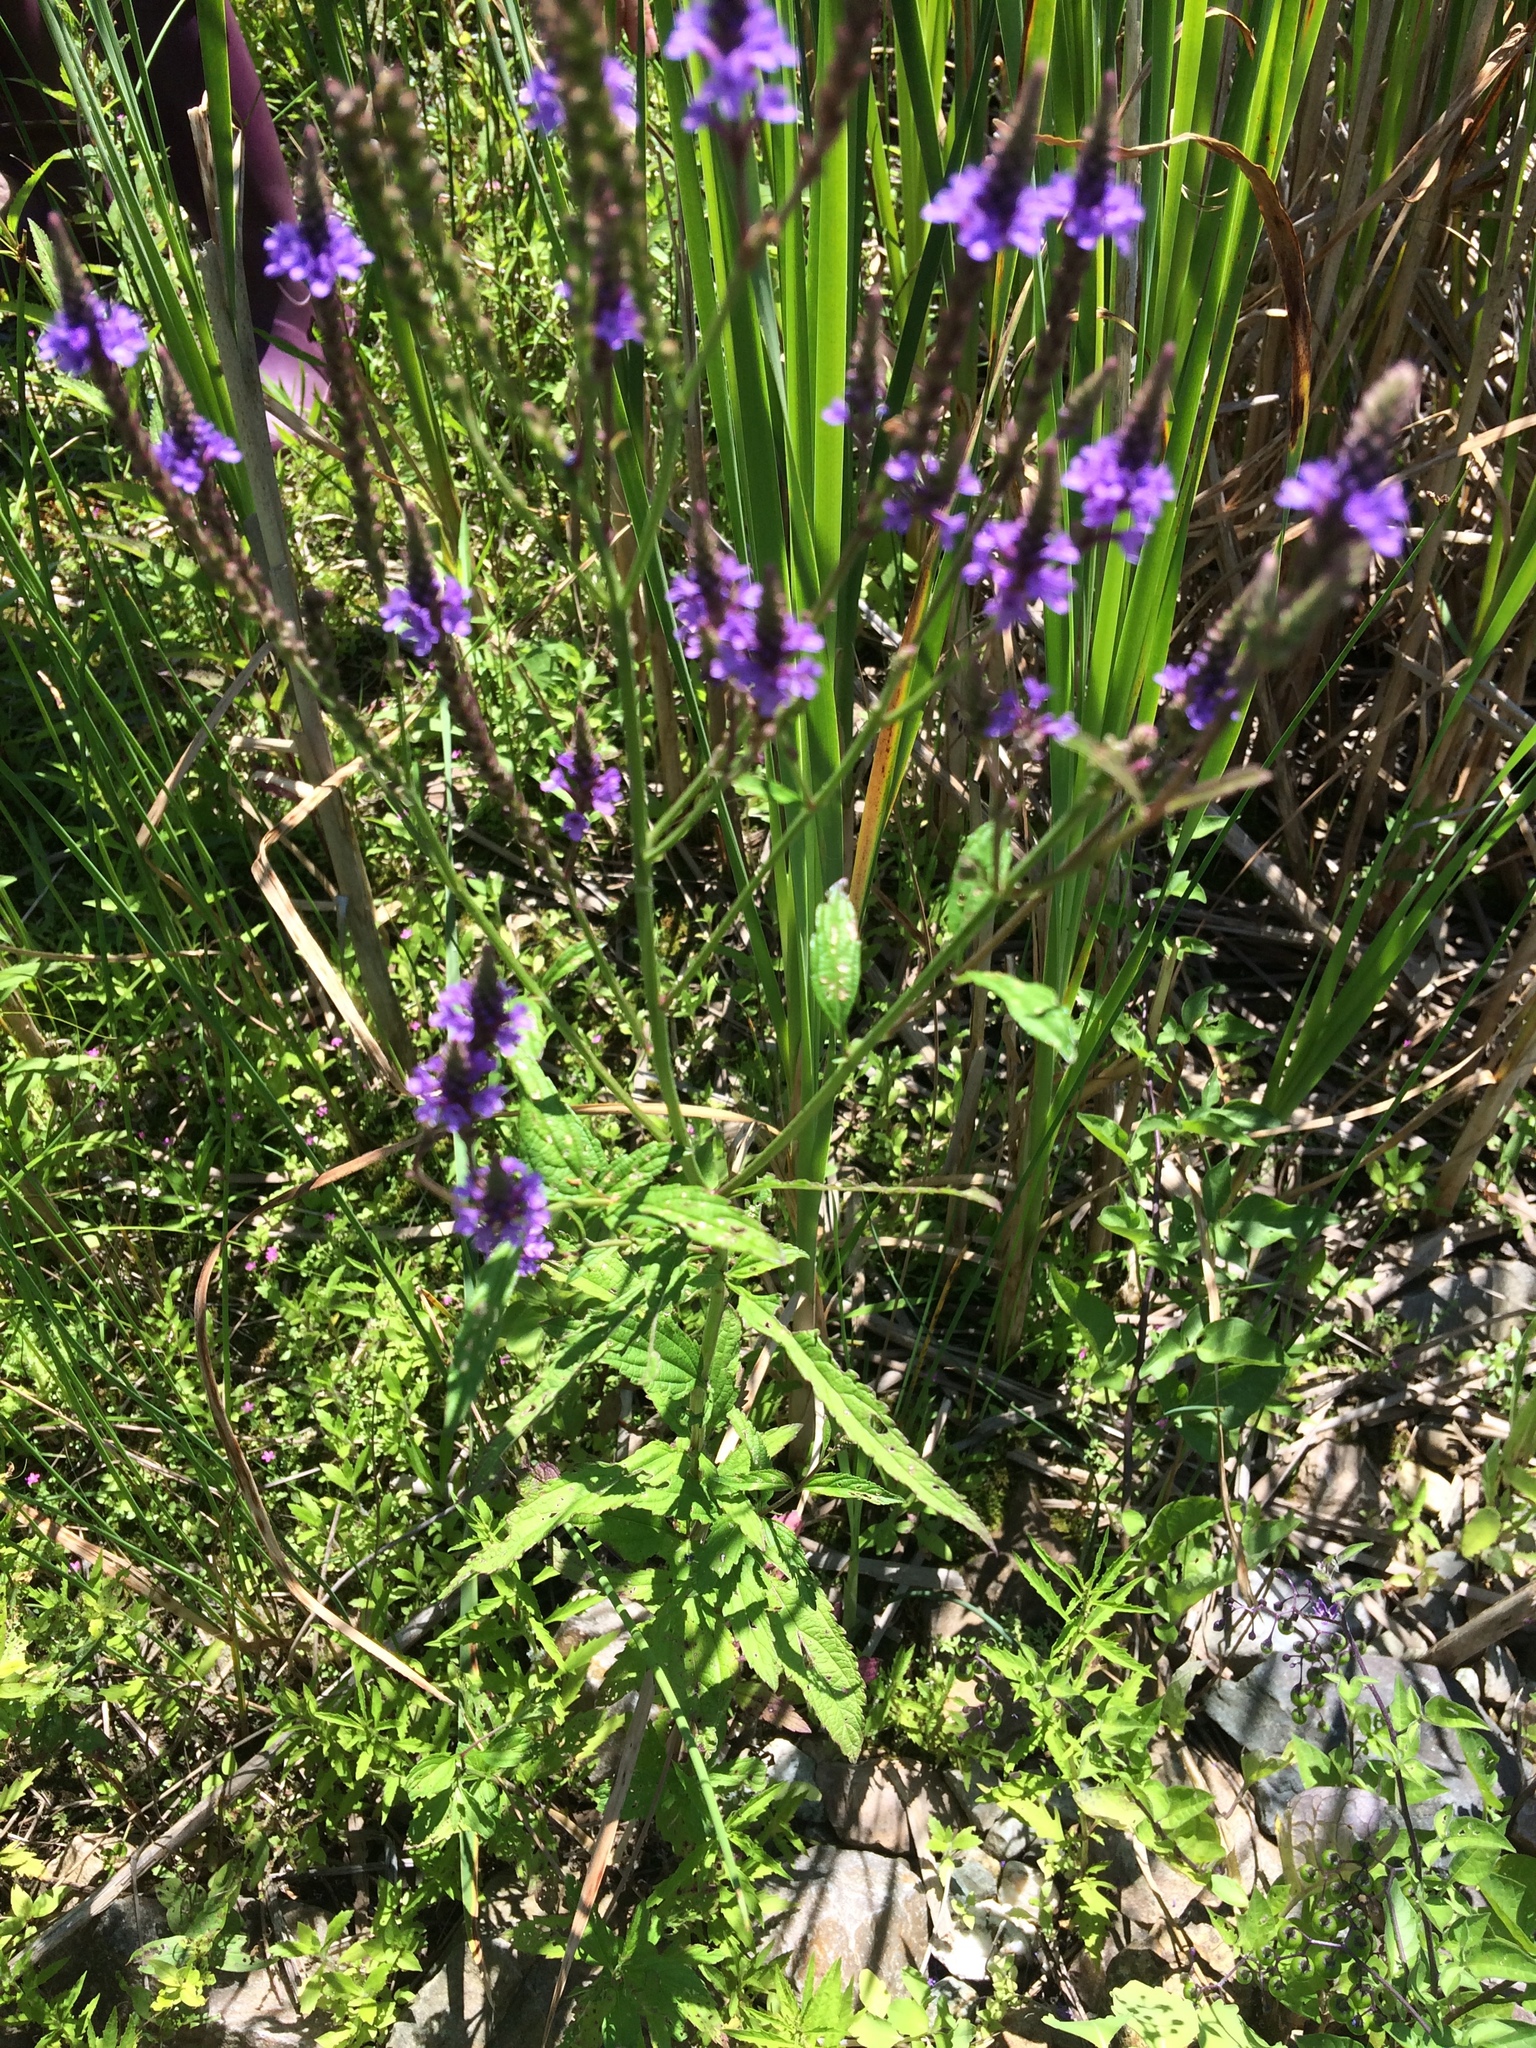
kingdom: Plantae
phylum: Tracheophyta
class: Magnoliopsida
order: Lamiales
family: Verbenaceae
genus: Verbena
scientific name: Verbena hastata
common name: American blue vervain
